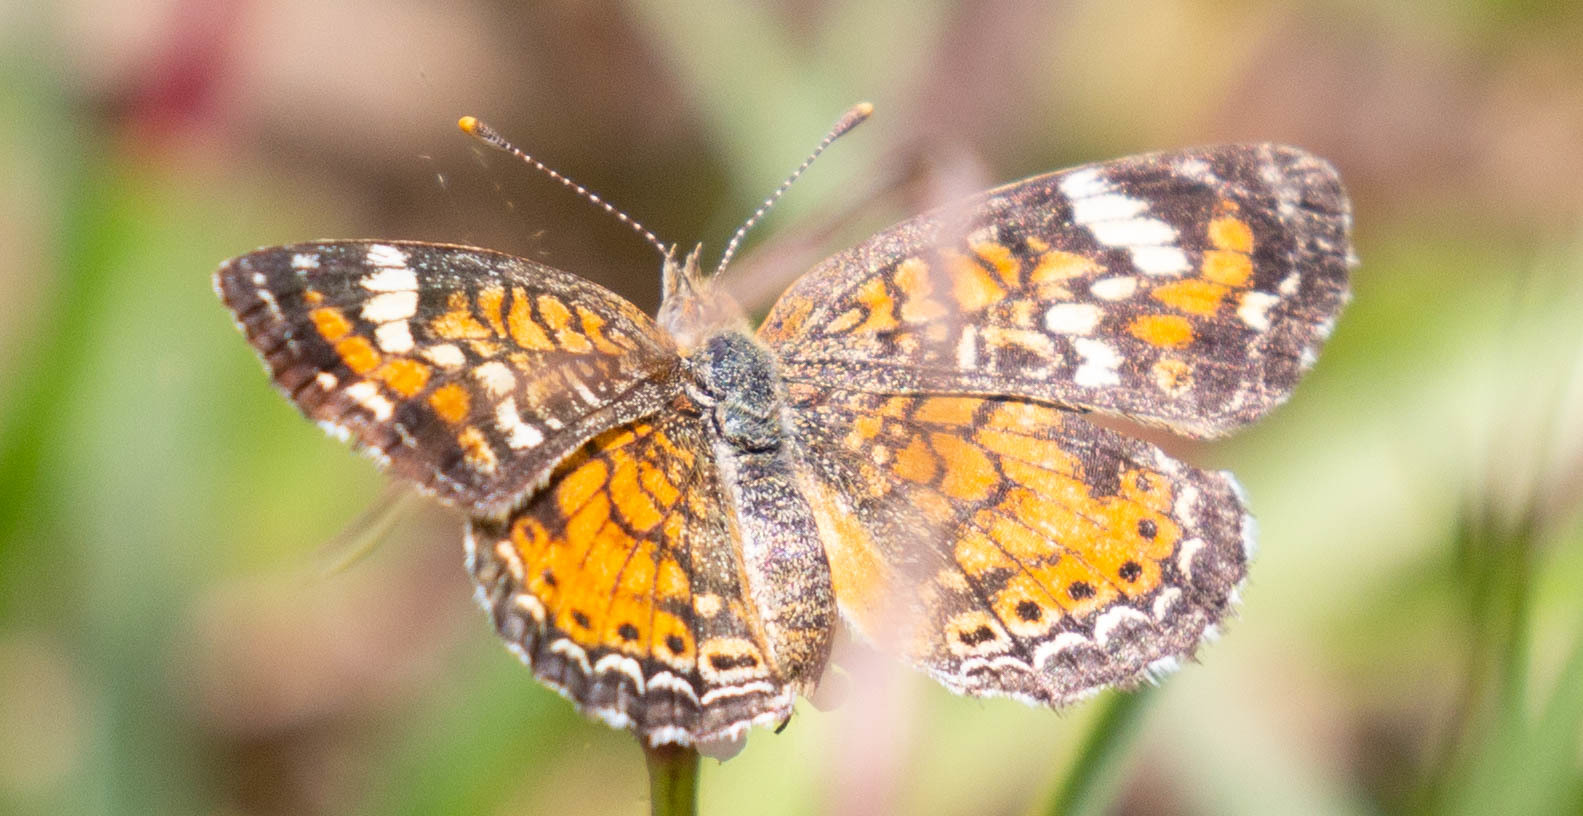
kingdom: Animalia
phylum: Arthropoda
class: Insecta
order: Lepidoptera
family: Nymphalidae
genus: Phyciodes
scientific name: Phyciodes phaon
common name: Phaon crescent
